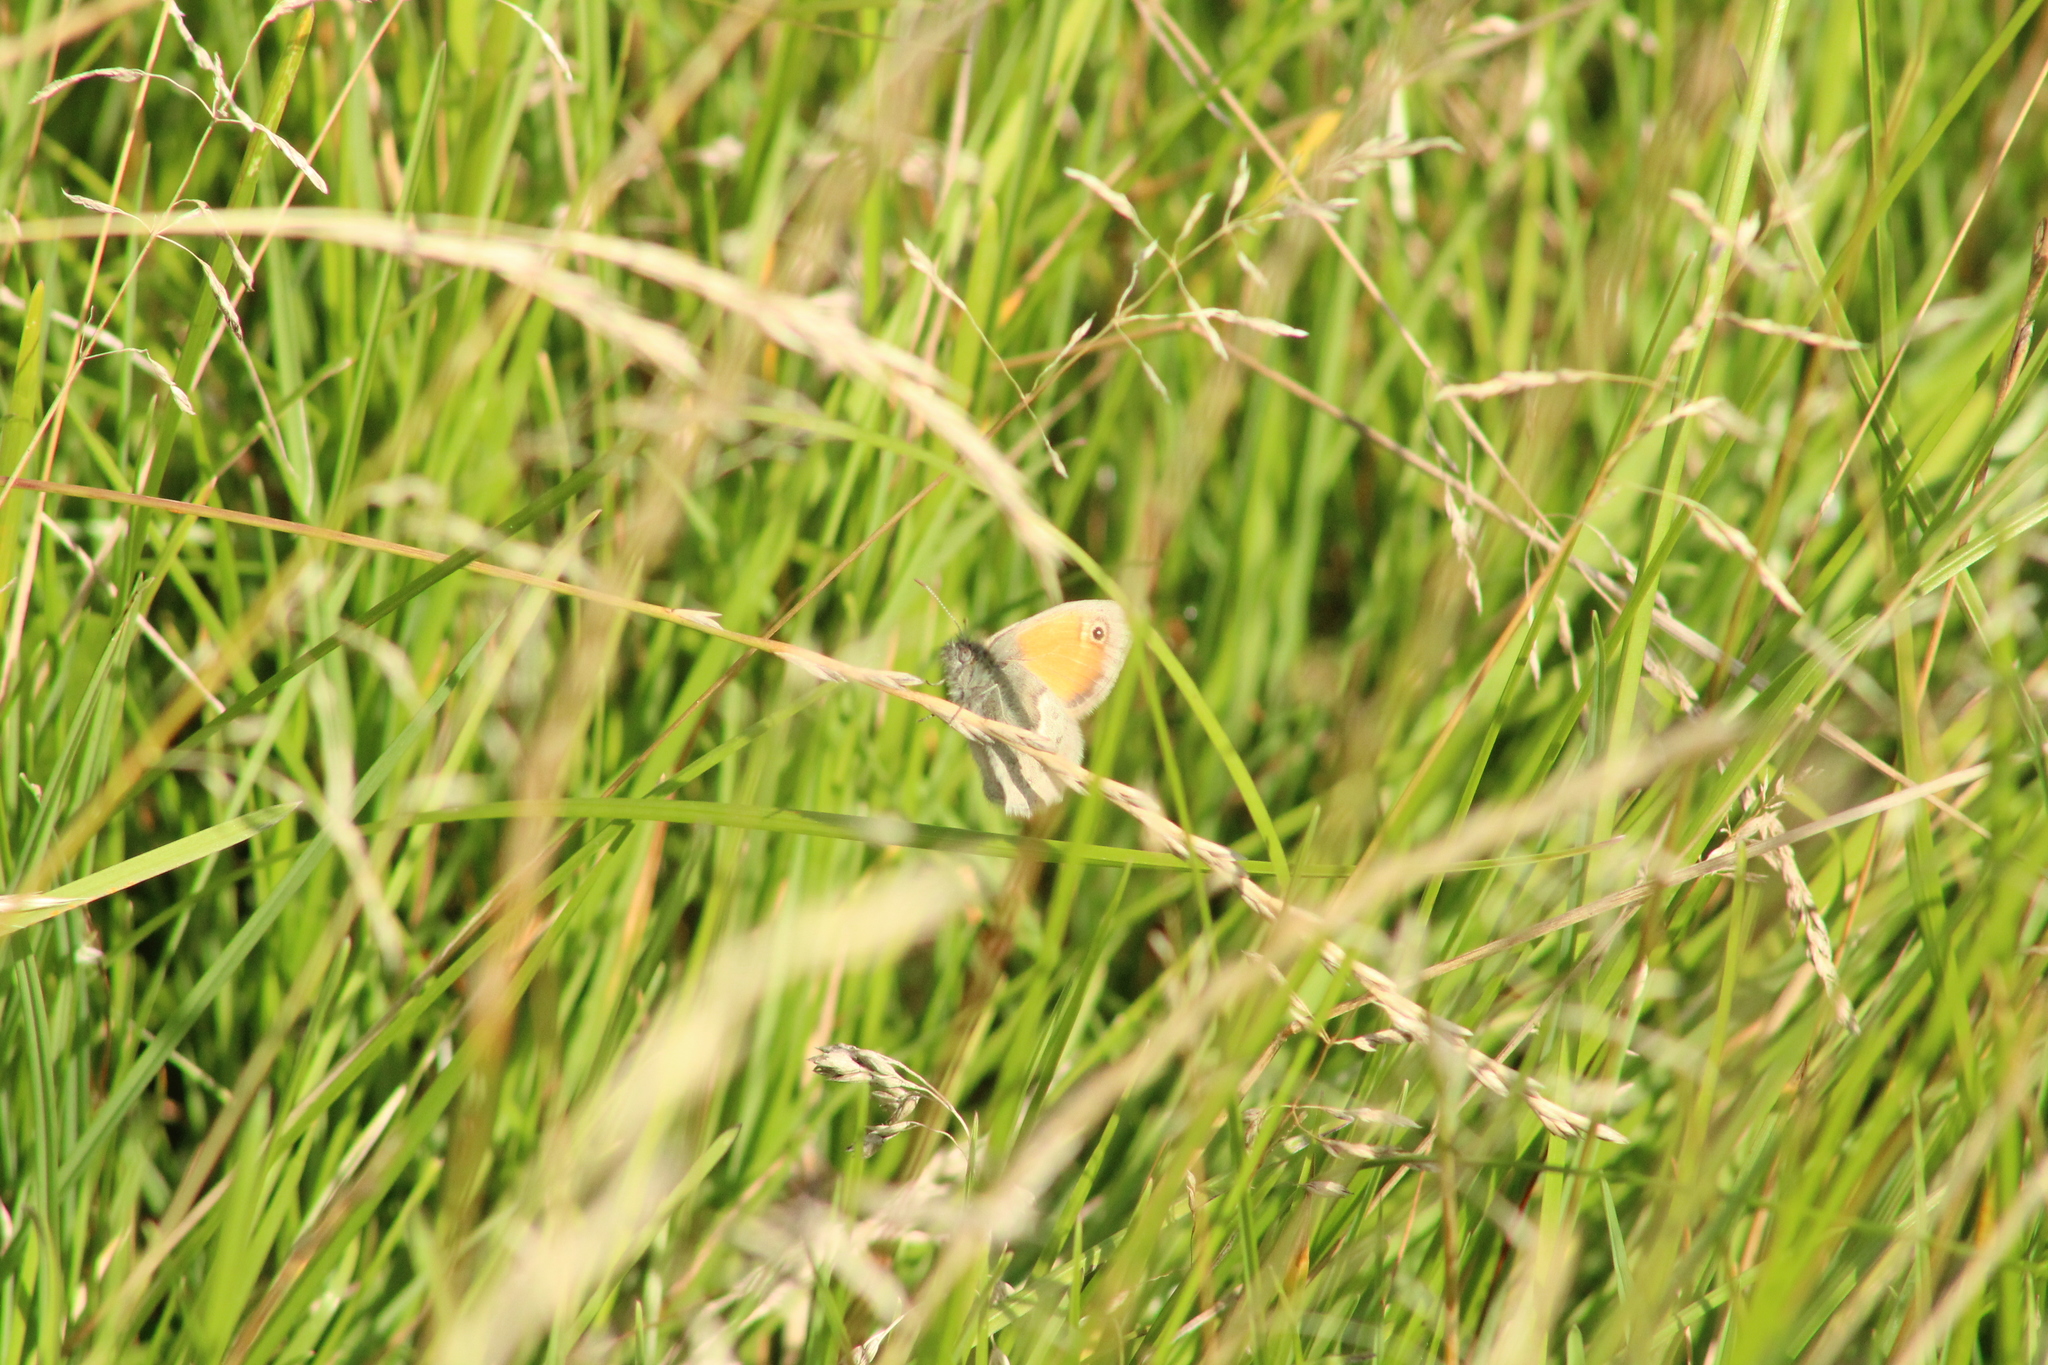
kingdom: Animalia
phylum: Arthropoda
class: Insecta
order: Lepidoptera
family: Nymphalidae
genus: Coenonympha
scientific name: Coenonympha pamphilus
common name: Small heath
